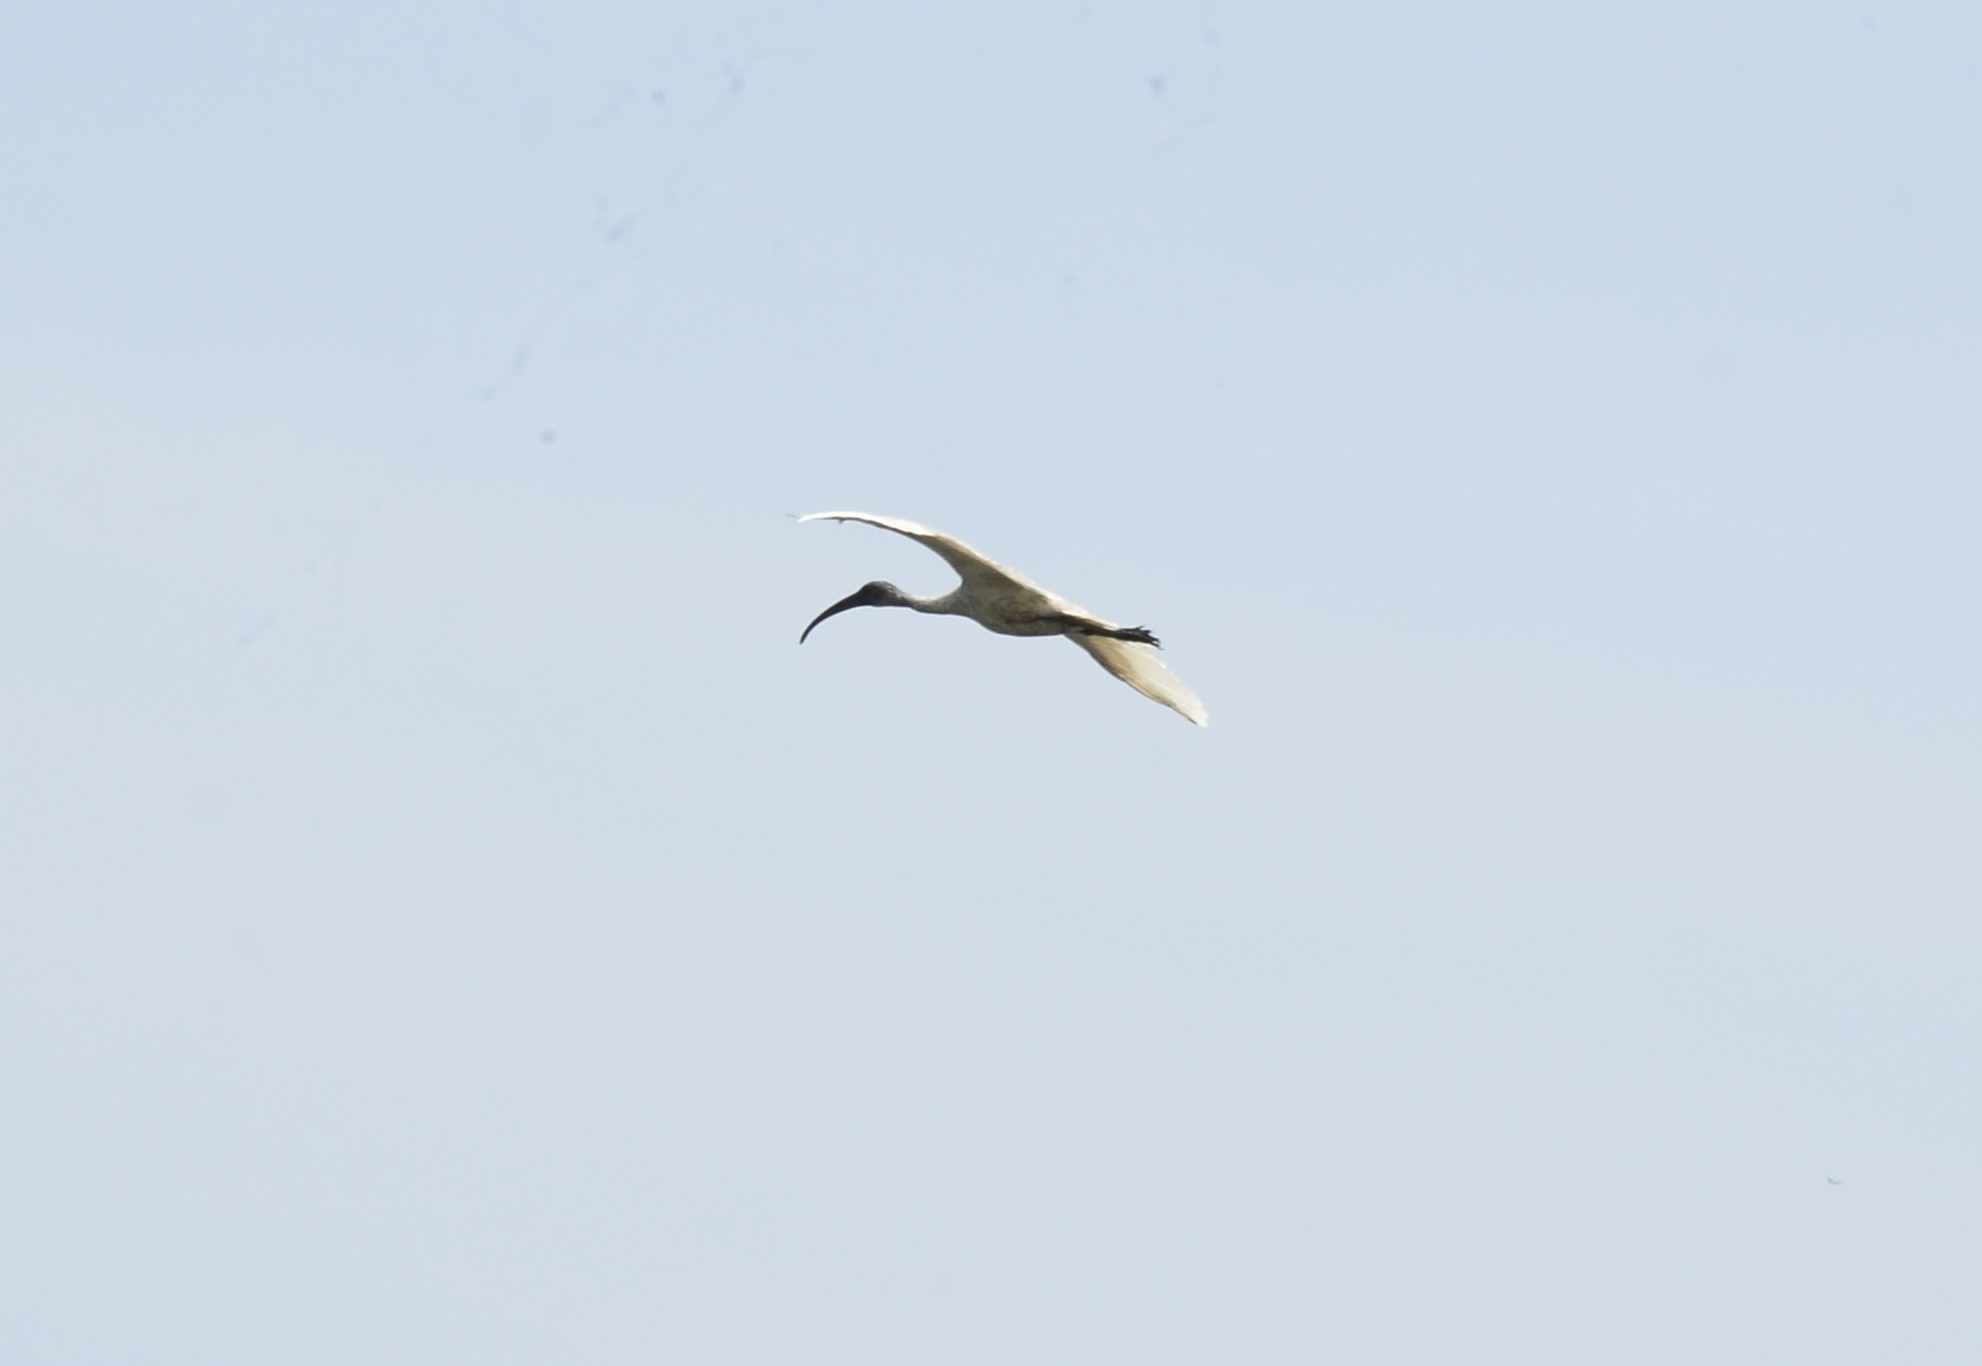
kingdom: Animalia
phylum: Chordata
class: Aves
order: Pelecaniformes
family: Threskiornithidae
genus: Threskiornis
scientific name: Threskiornis melanocephalus
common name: Black-headed ibis
